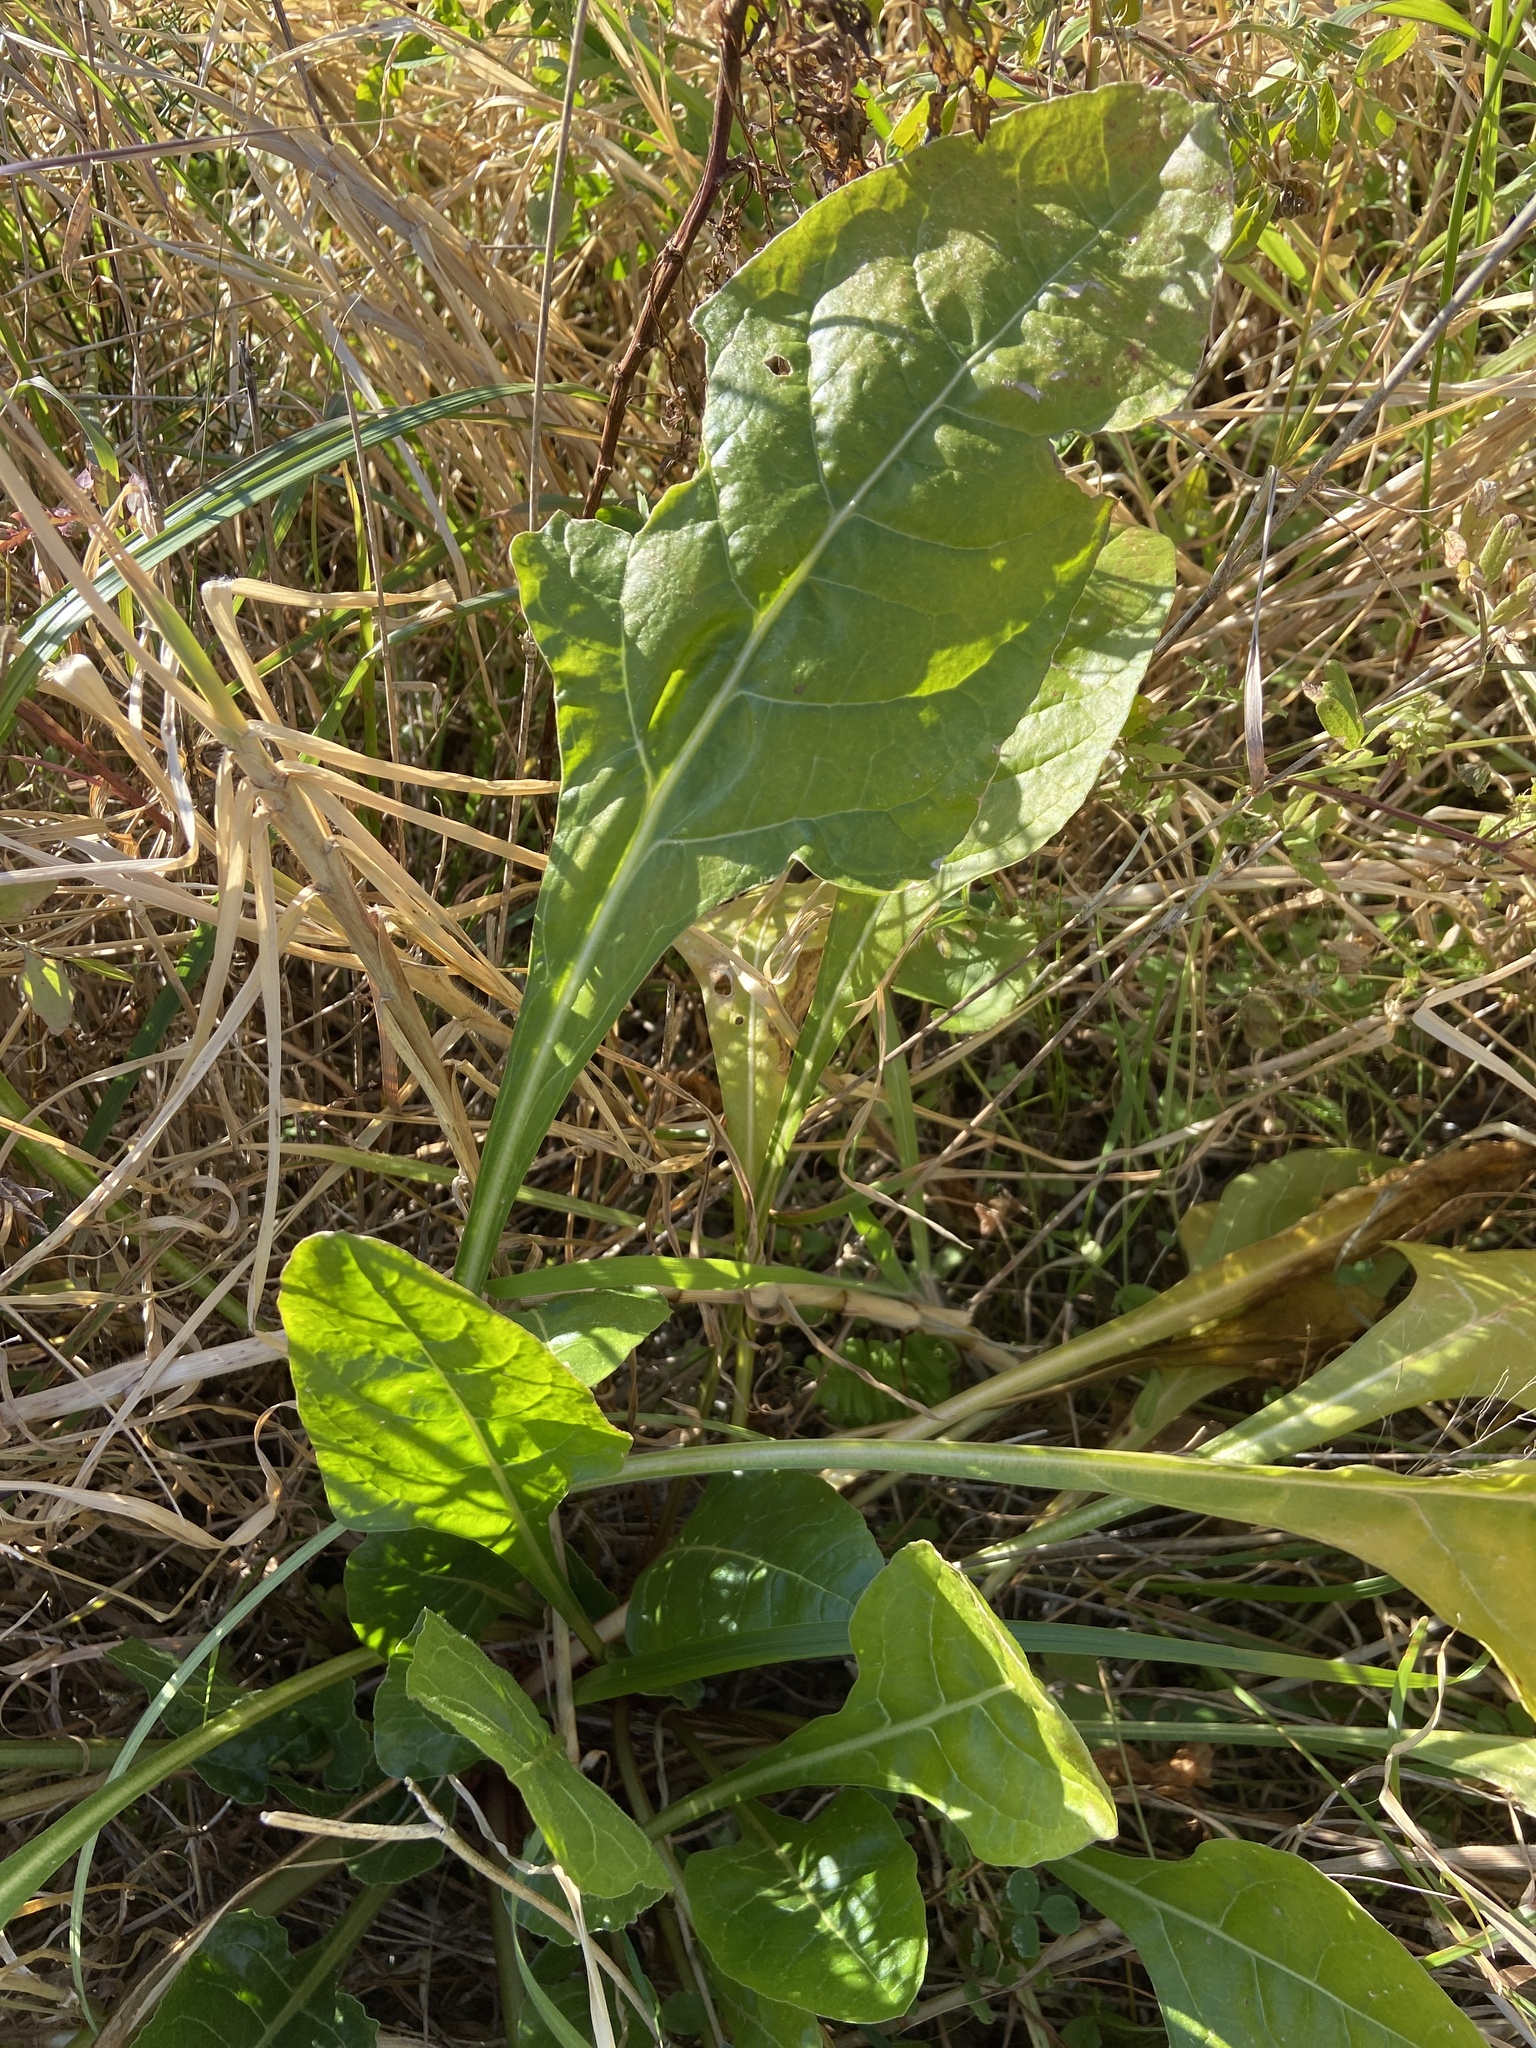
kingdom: Plantae
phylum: Tracheophyta
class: Magnoliopsida
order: Caryophyllales
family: Amaranthaceae
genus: Beta
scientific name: Beta vulgaris
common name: Beet
